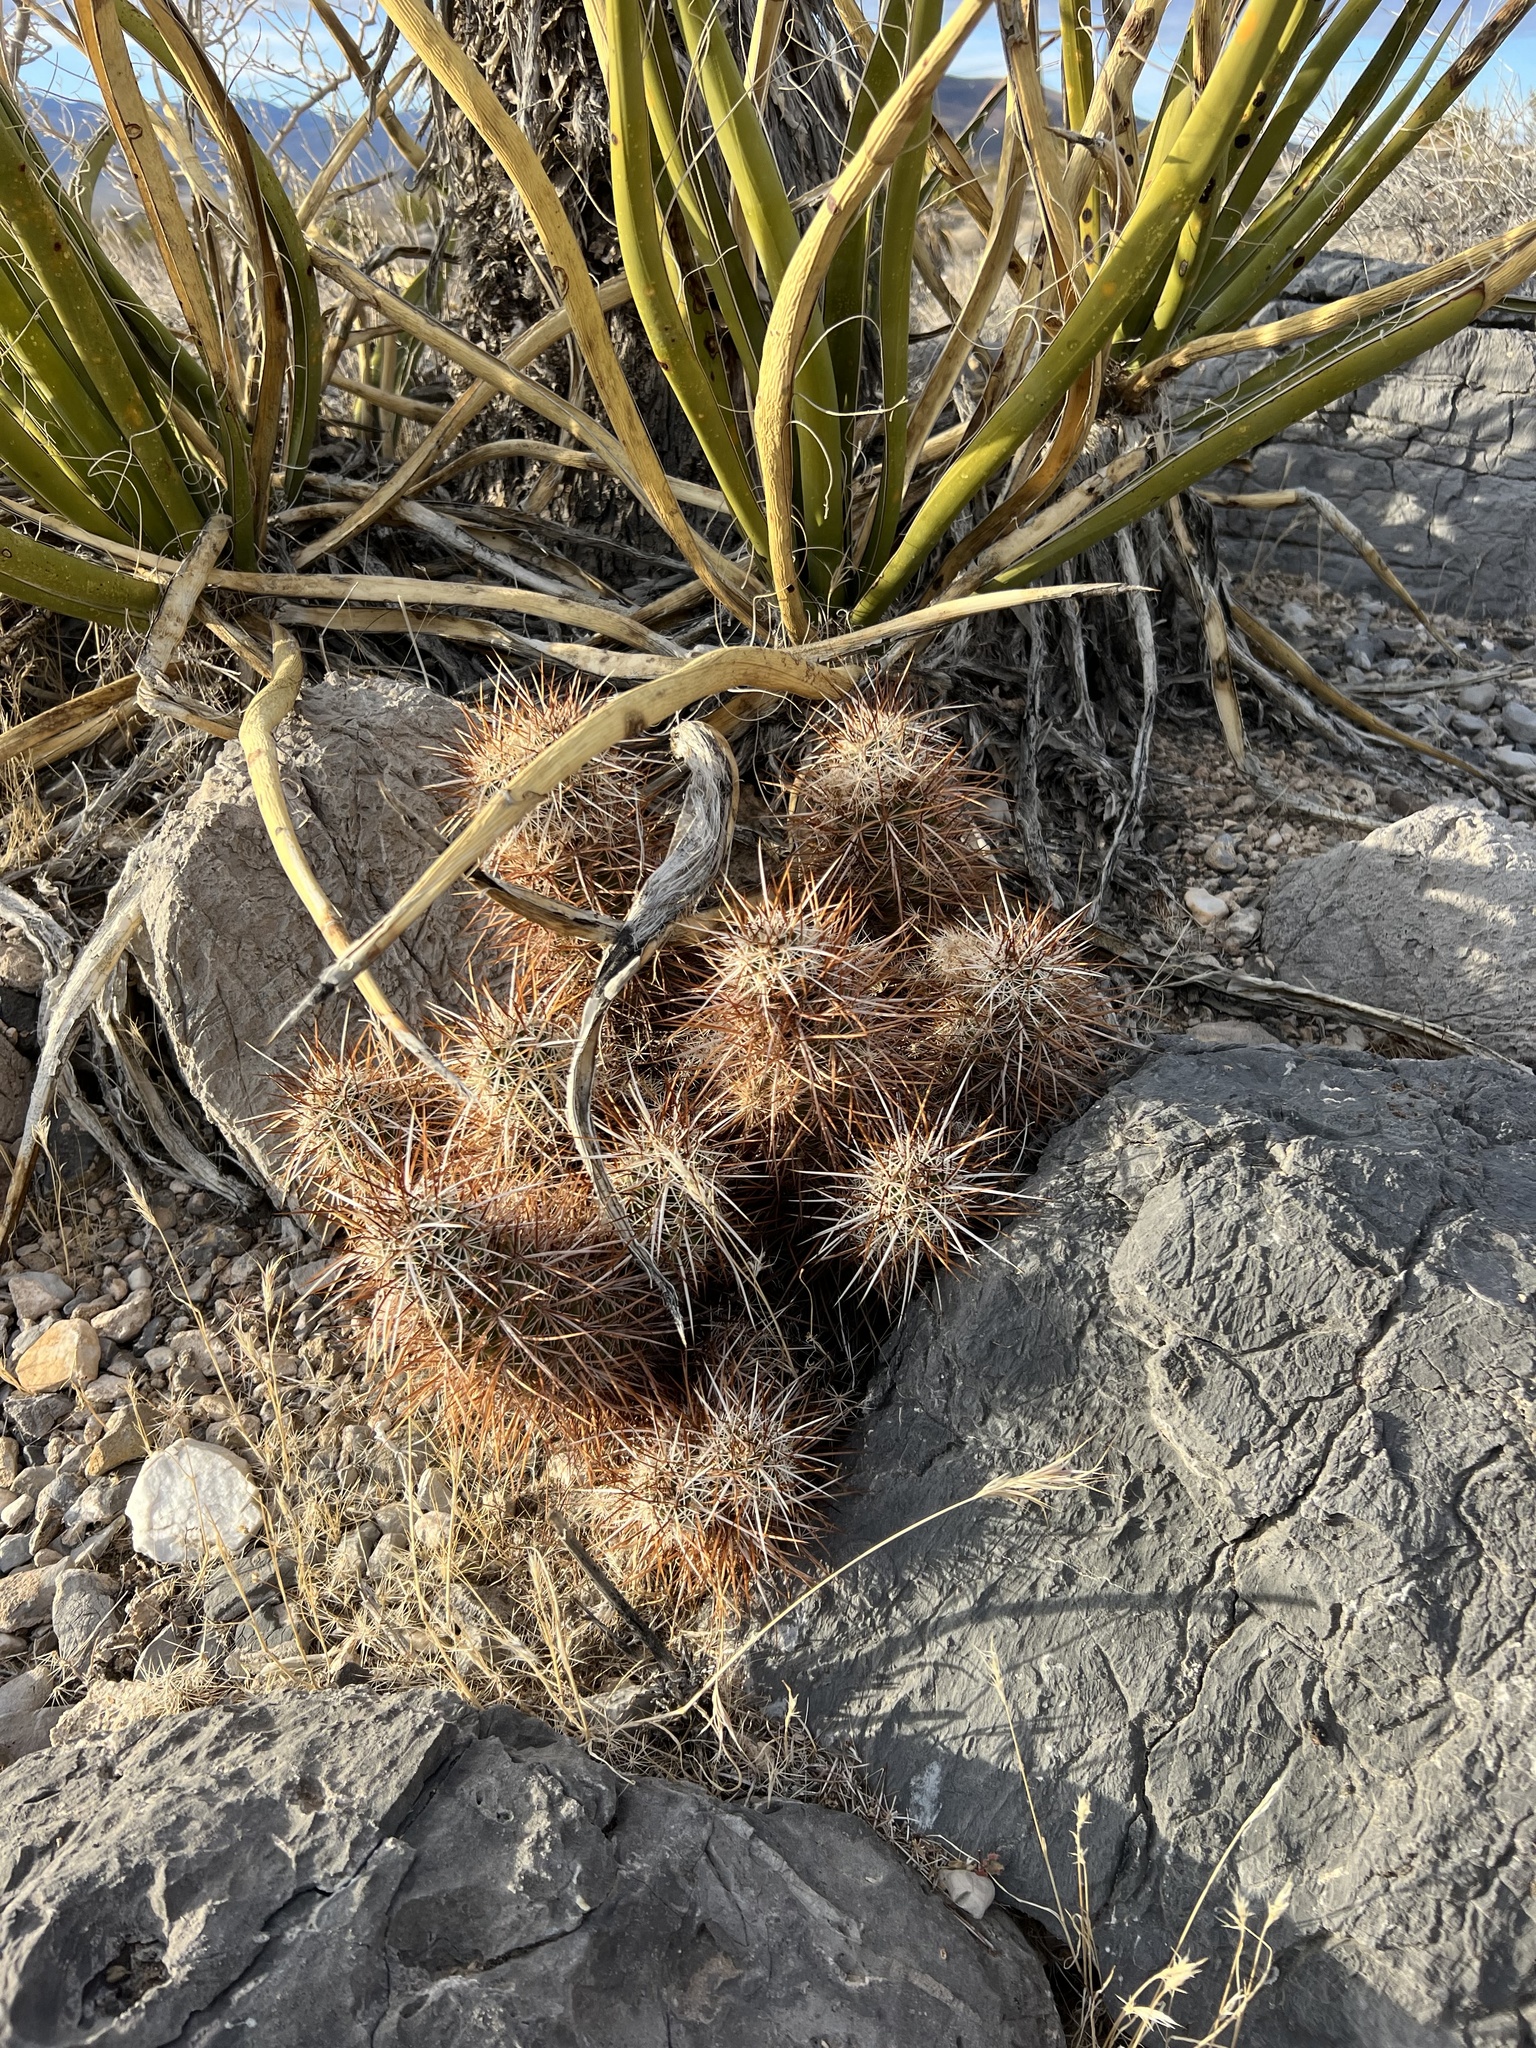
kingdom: Plantae
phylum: Tracheophyta
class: Magnoliopsida
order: Caryophyllales
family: Cactaceae
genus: Echinocereus
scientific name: Echinocereus engelmannii
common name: Engelmann's hedgehog cactus
